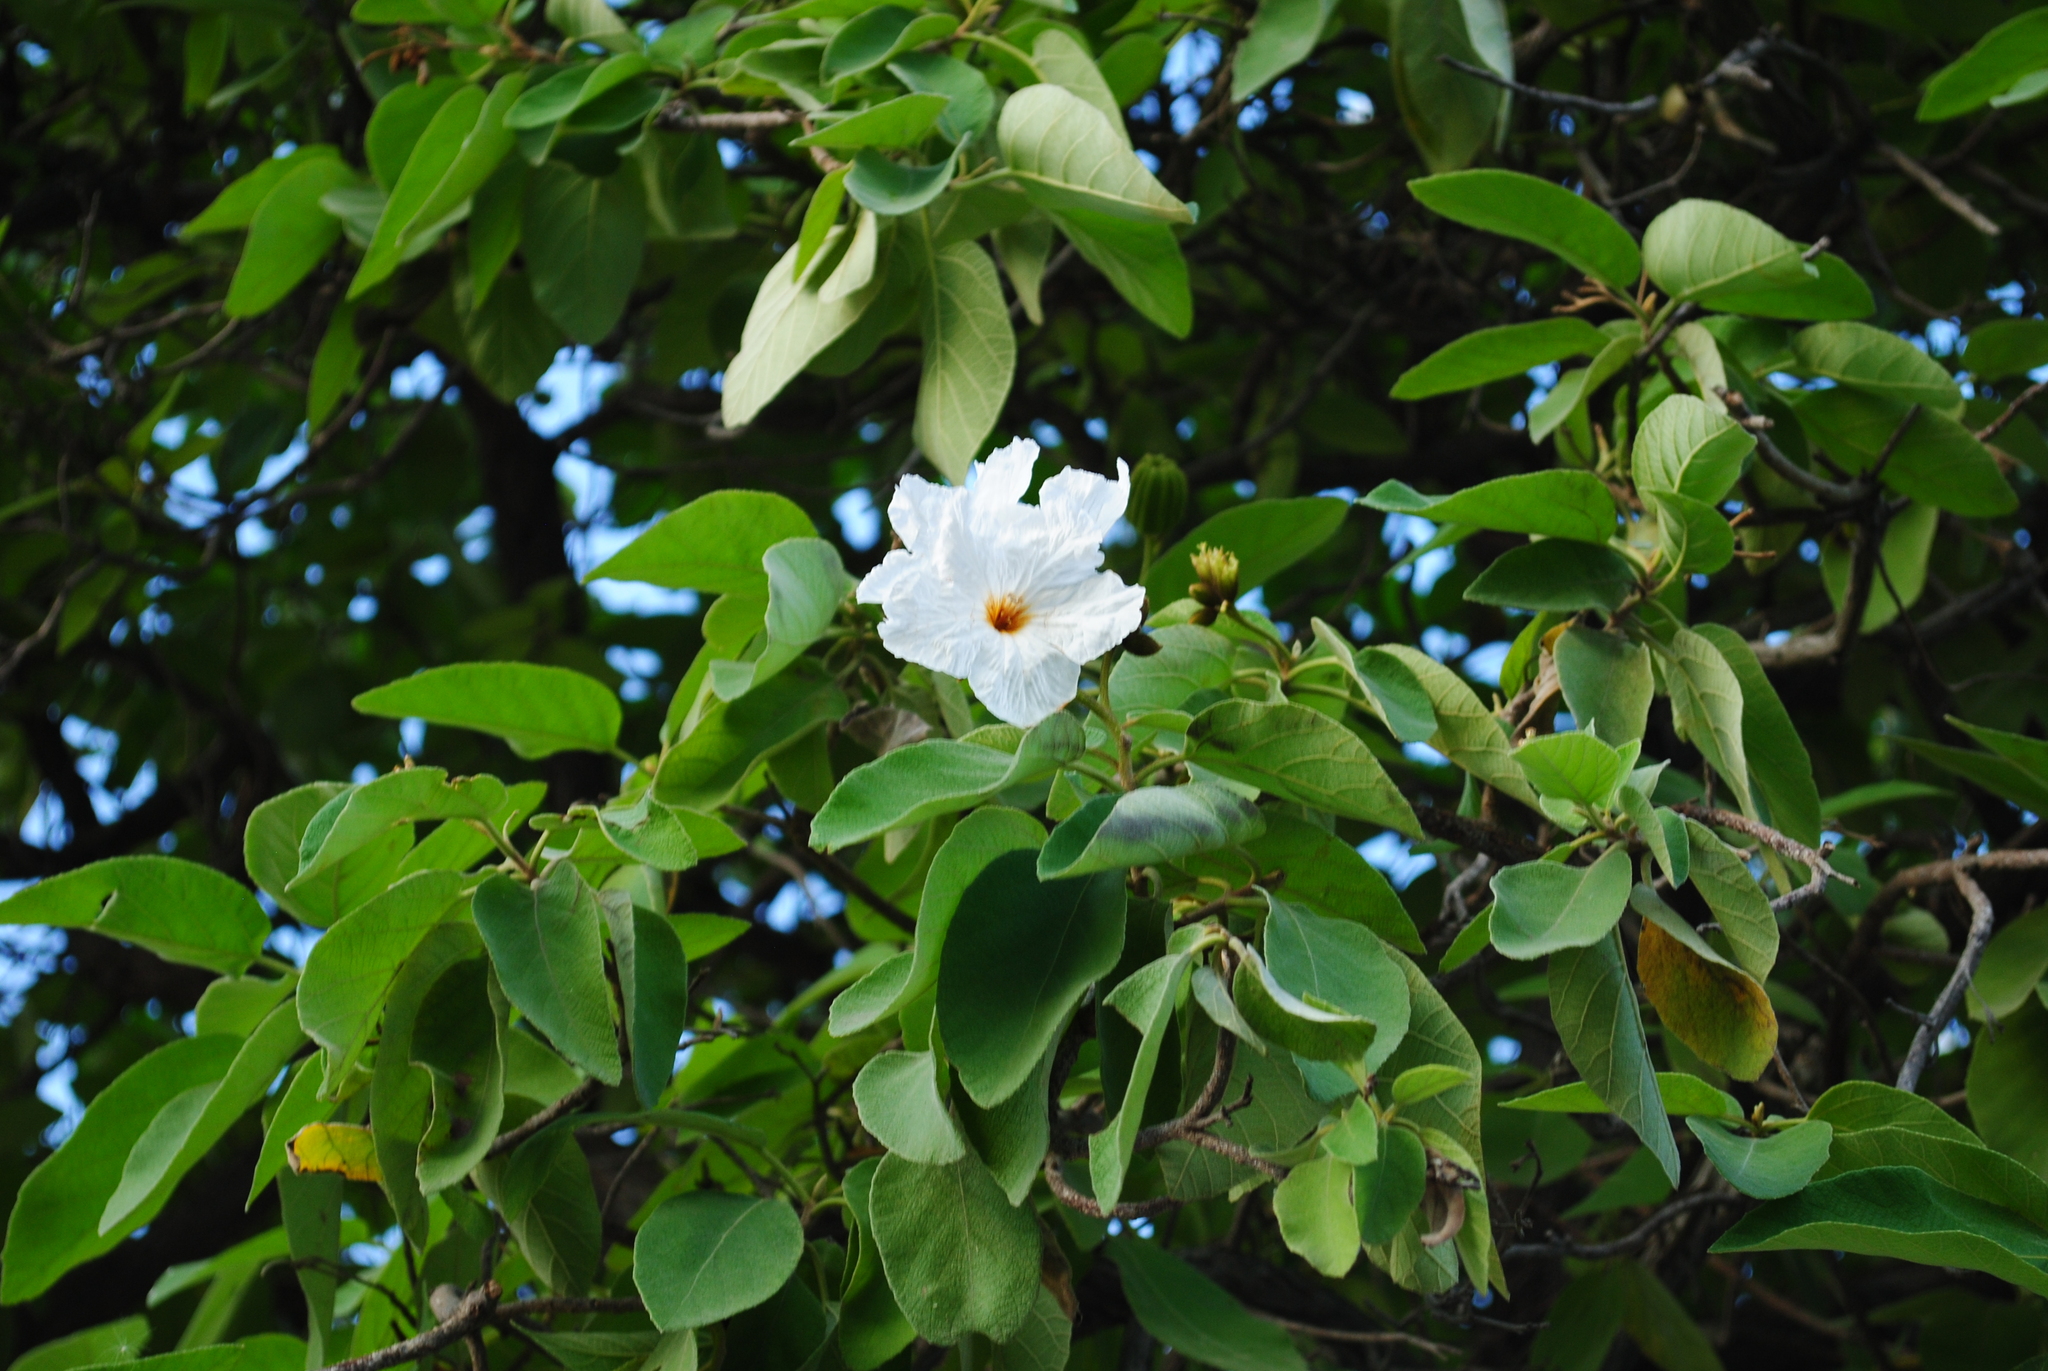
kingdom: Plantae
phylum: Tracheophyta
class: Magnoliopsida
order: Boraginales
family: Cordiaceae
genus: Cordia
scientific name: Cordia boissieri
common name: Mexican-olive
